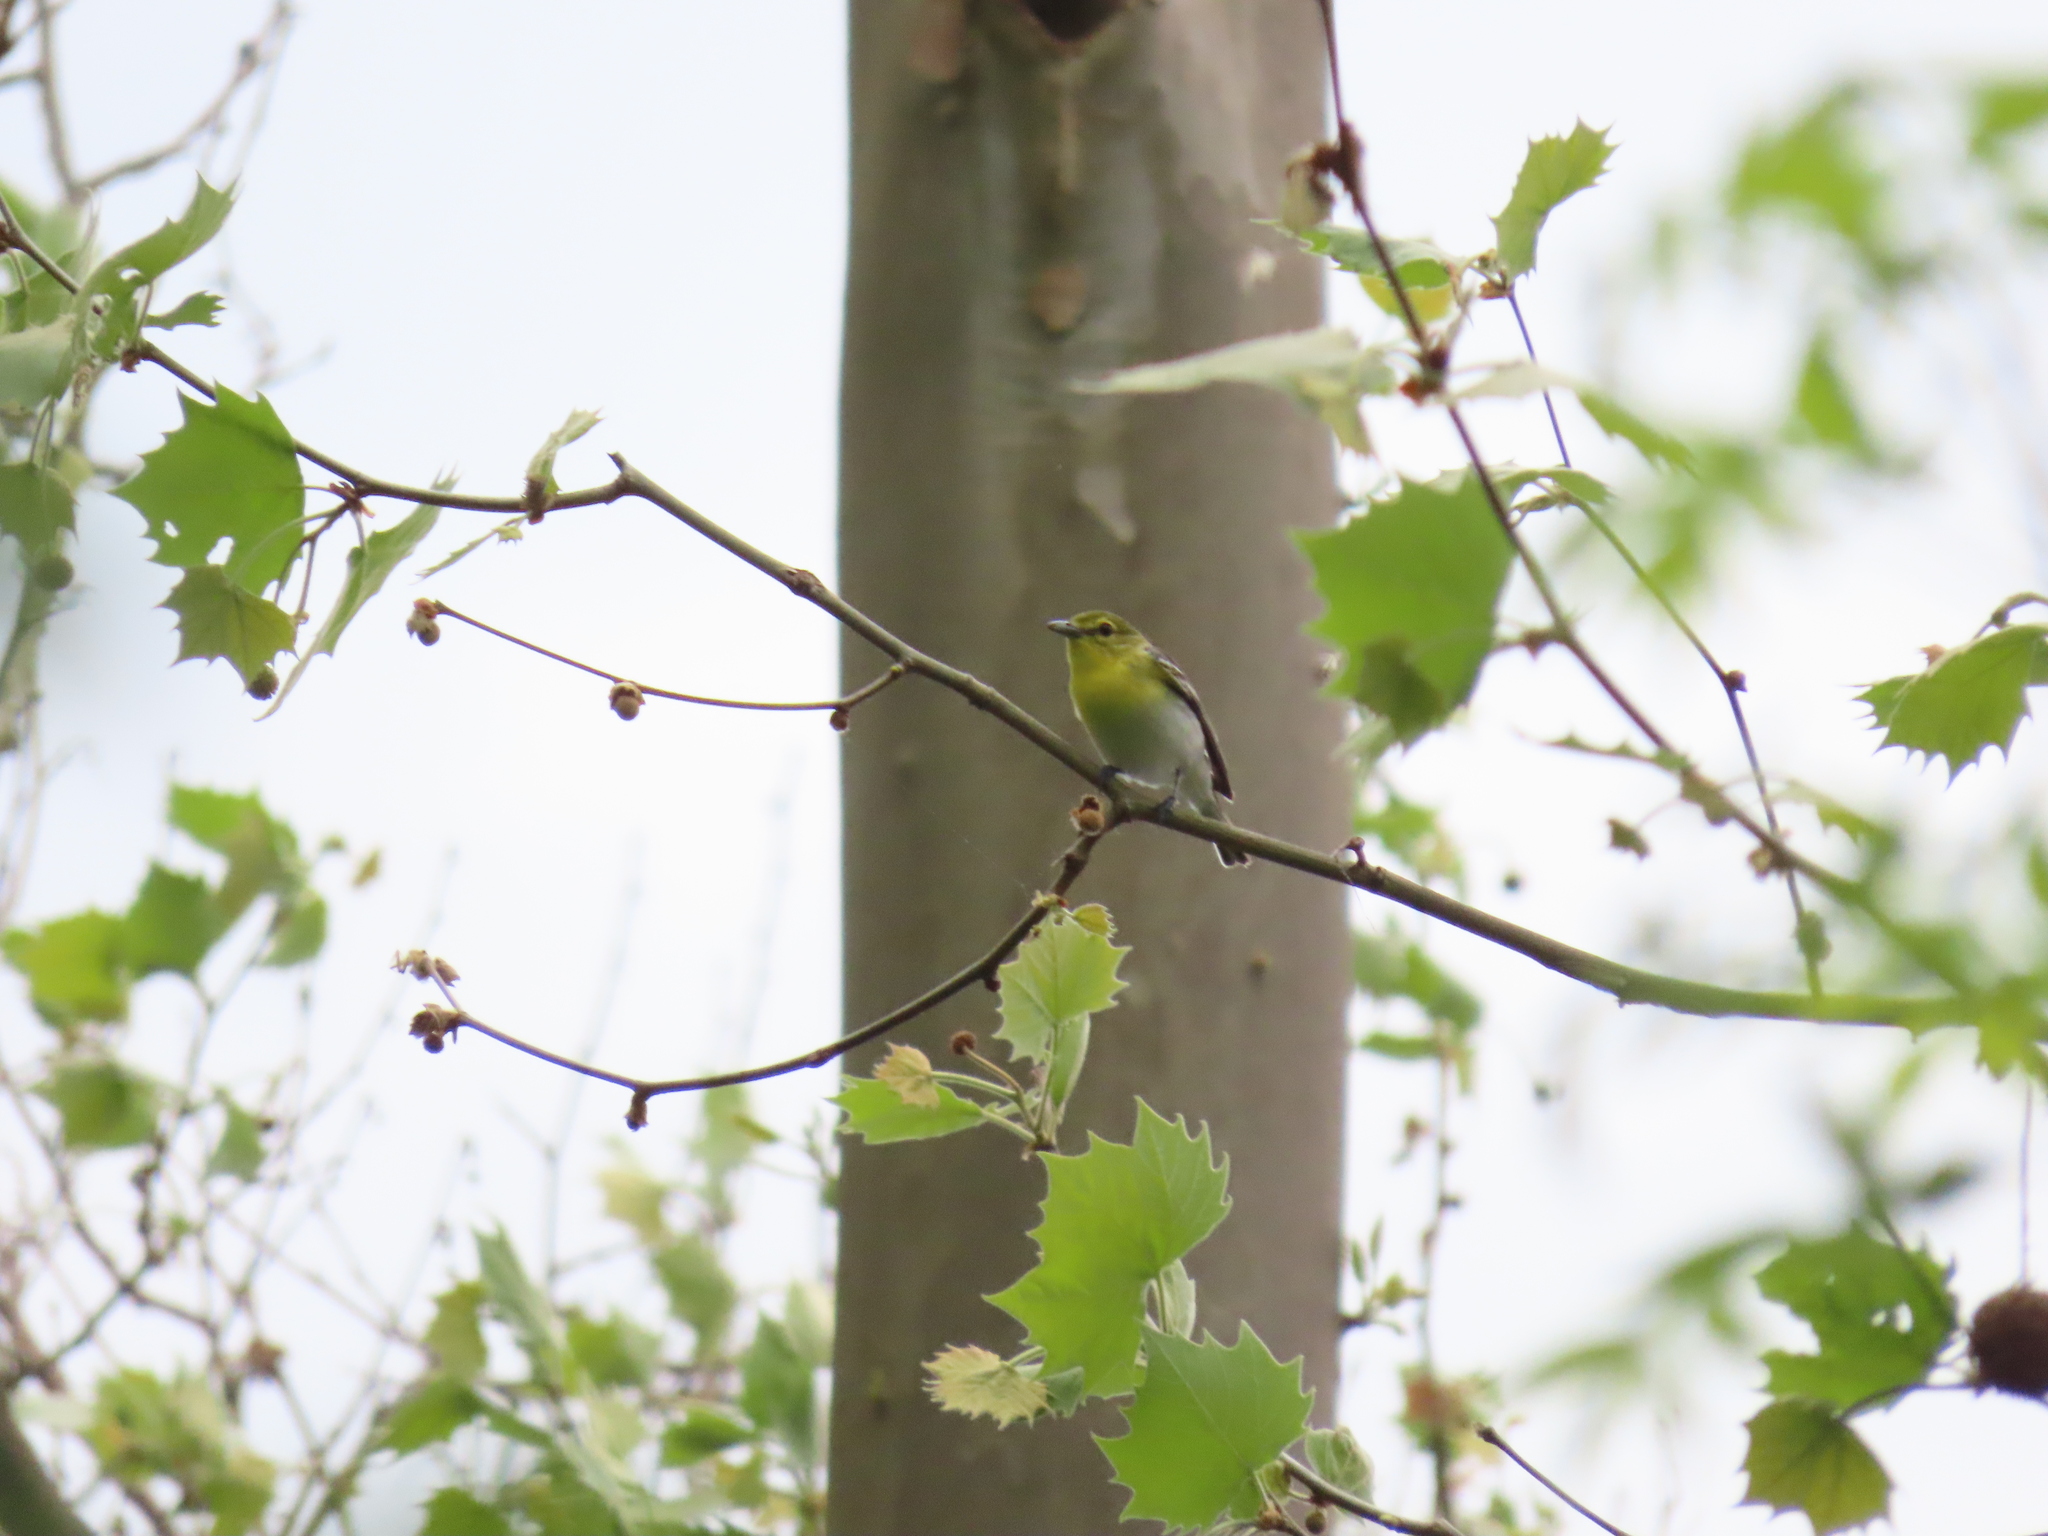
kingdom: Animalia
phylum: Chordata
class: Aves
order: Passeriformes
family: Vireonidae
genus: Vireo
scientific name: Vireo flavifrons
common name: Yellow-throated vireo
